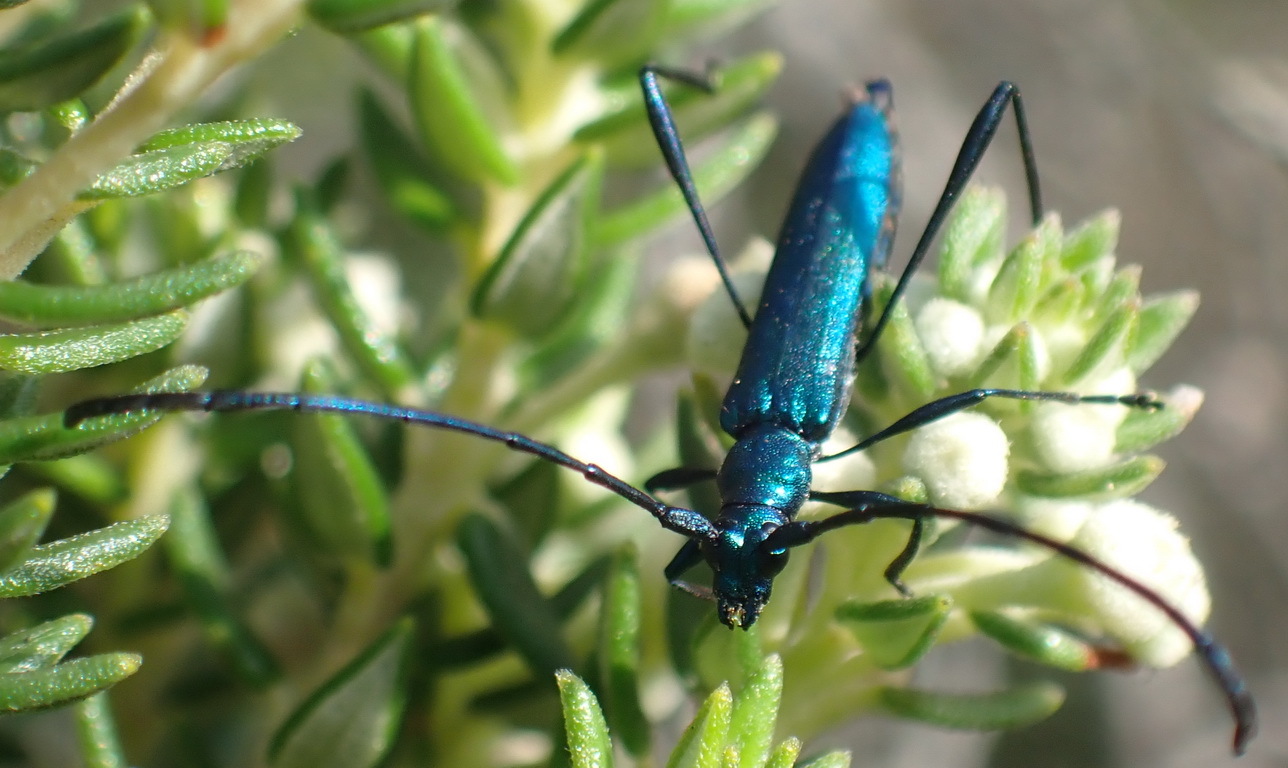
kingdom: Animalia
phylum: Arthropoda
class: Insecta
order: Coleoptera
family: Cerambycidae
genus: Promeces
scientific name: Promeces longipes
